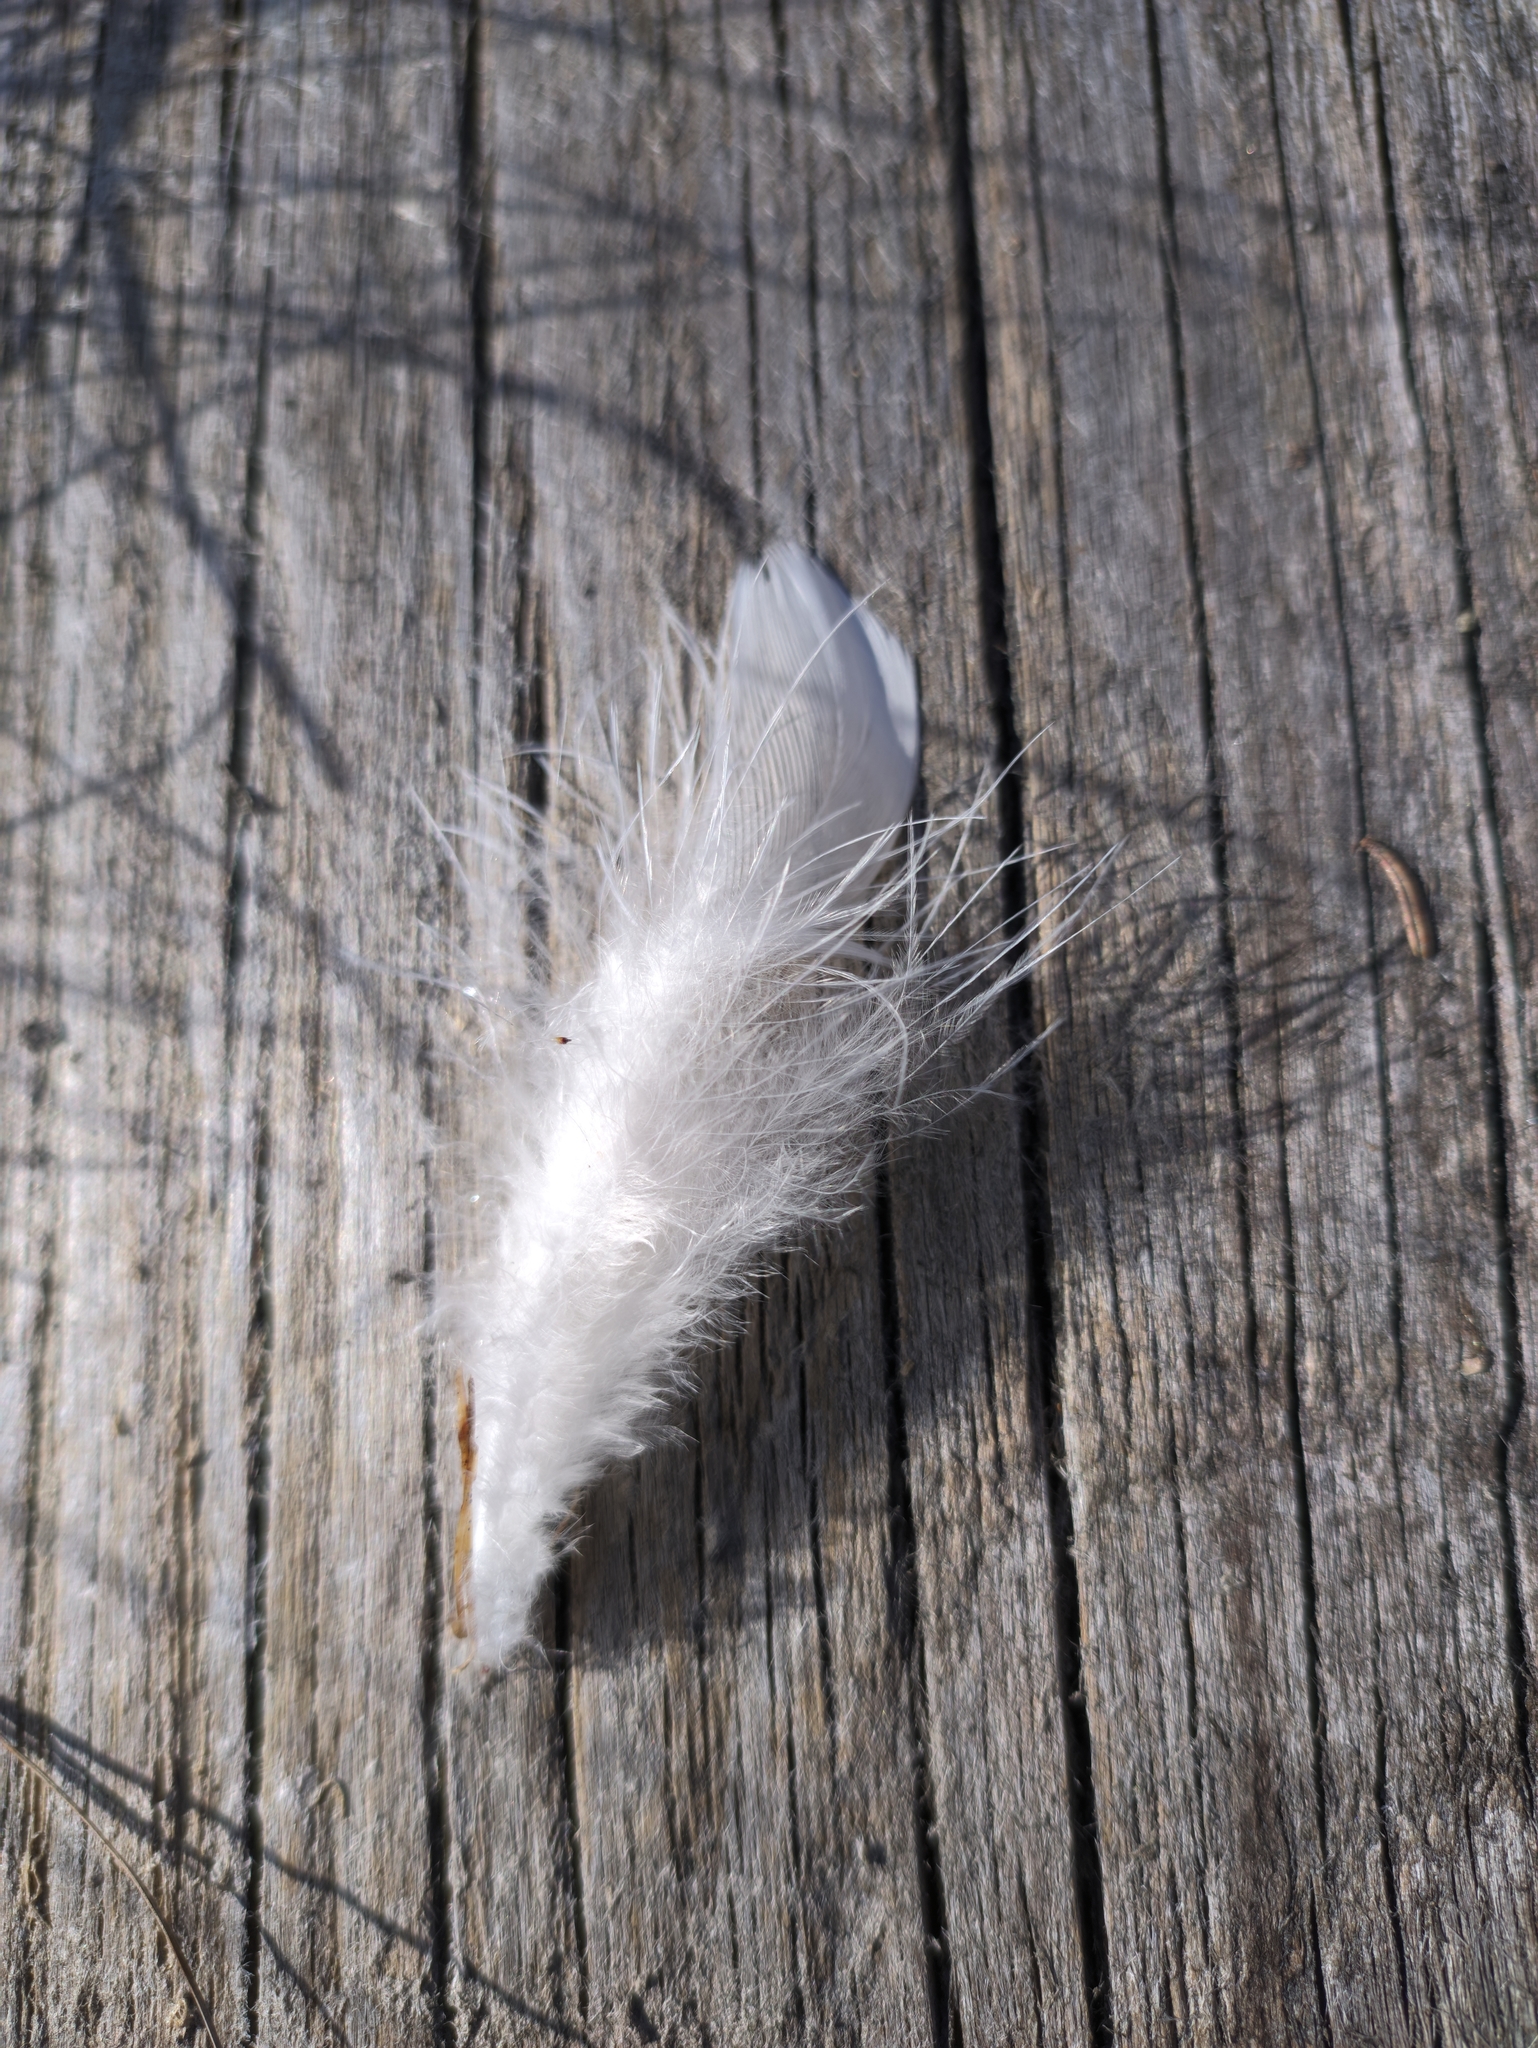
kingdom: Animalia
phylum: Chordata
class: Aves
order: Galliformes
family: Phasianidae
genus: Lyrurus
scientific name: Lyrurus tetrix
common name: Black grouse
